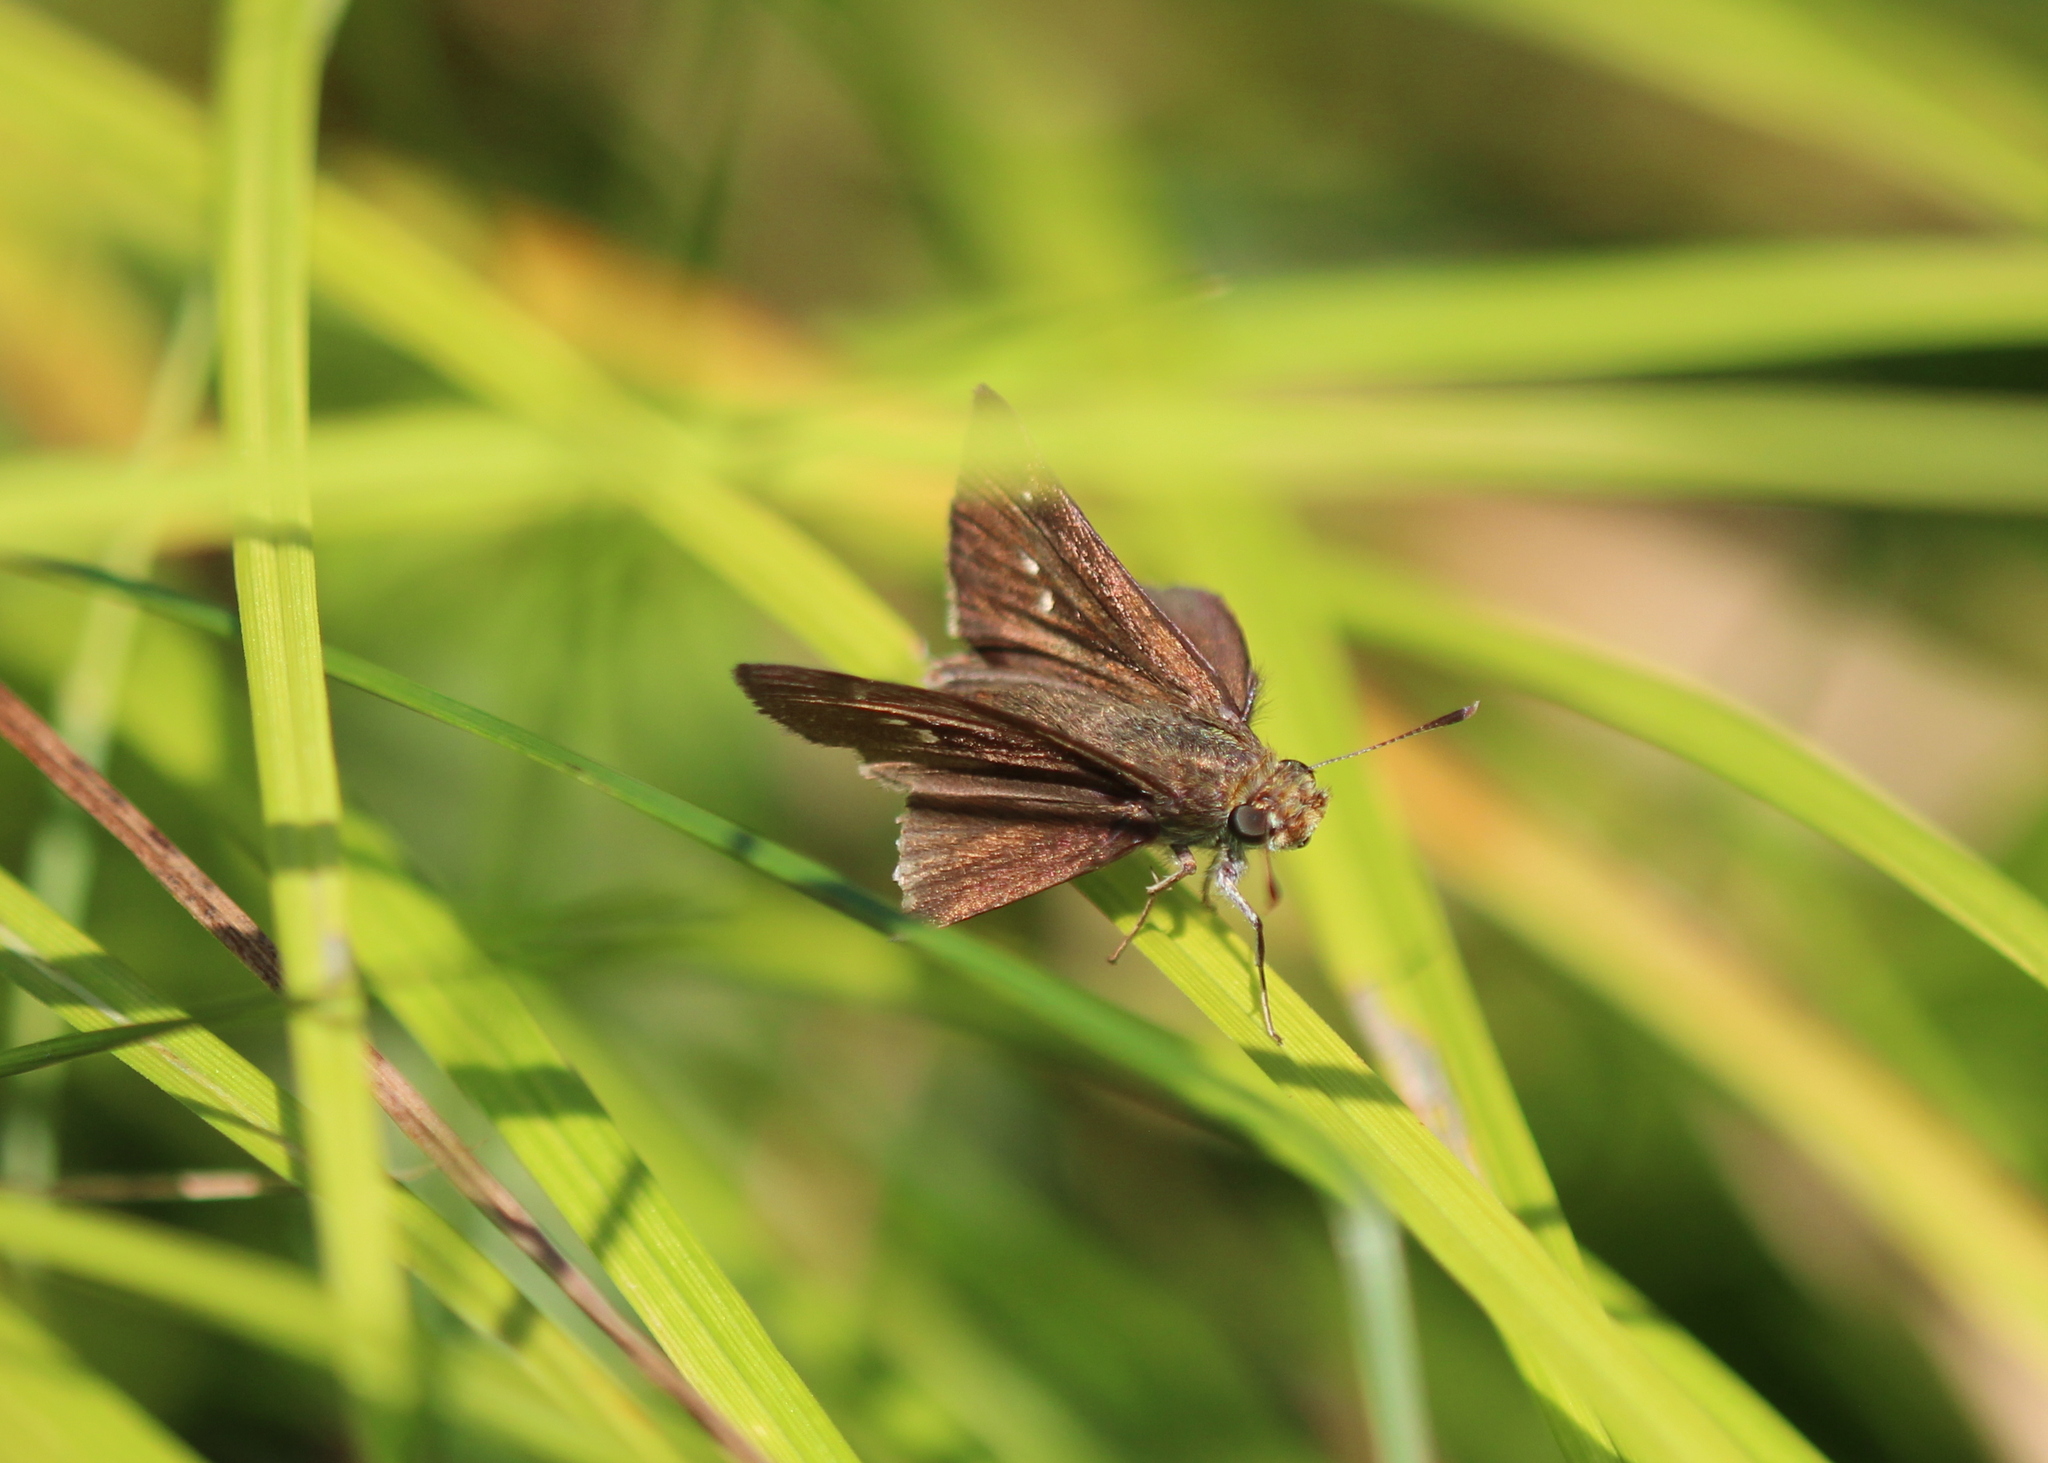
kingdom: Animalia
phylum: Arthropoda
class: Insecta
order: Lepidoptera
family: Hesperiidae
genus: Euphyes
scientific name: Euphyes vestris
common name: Dun skipper
